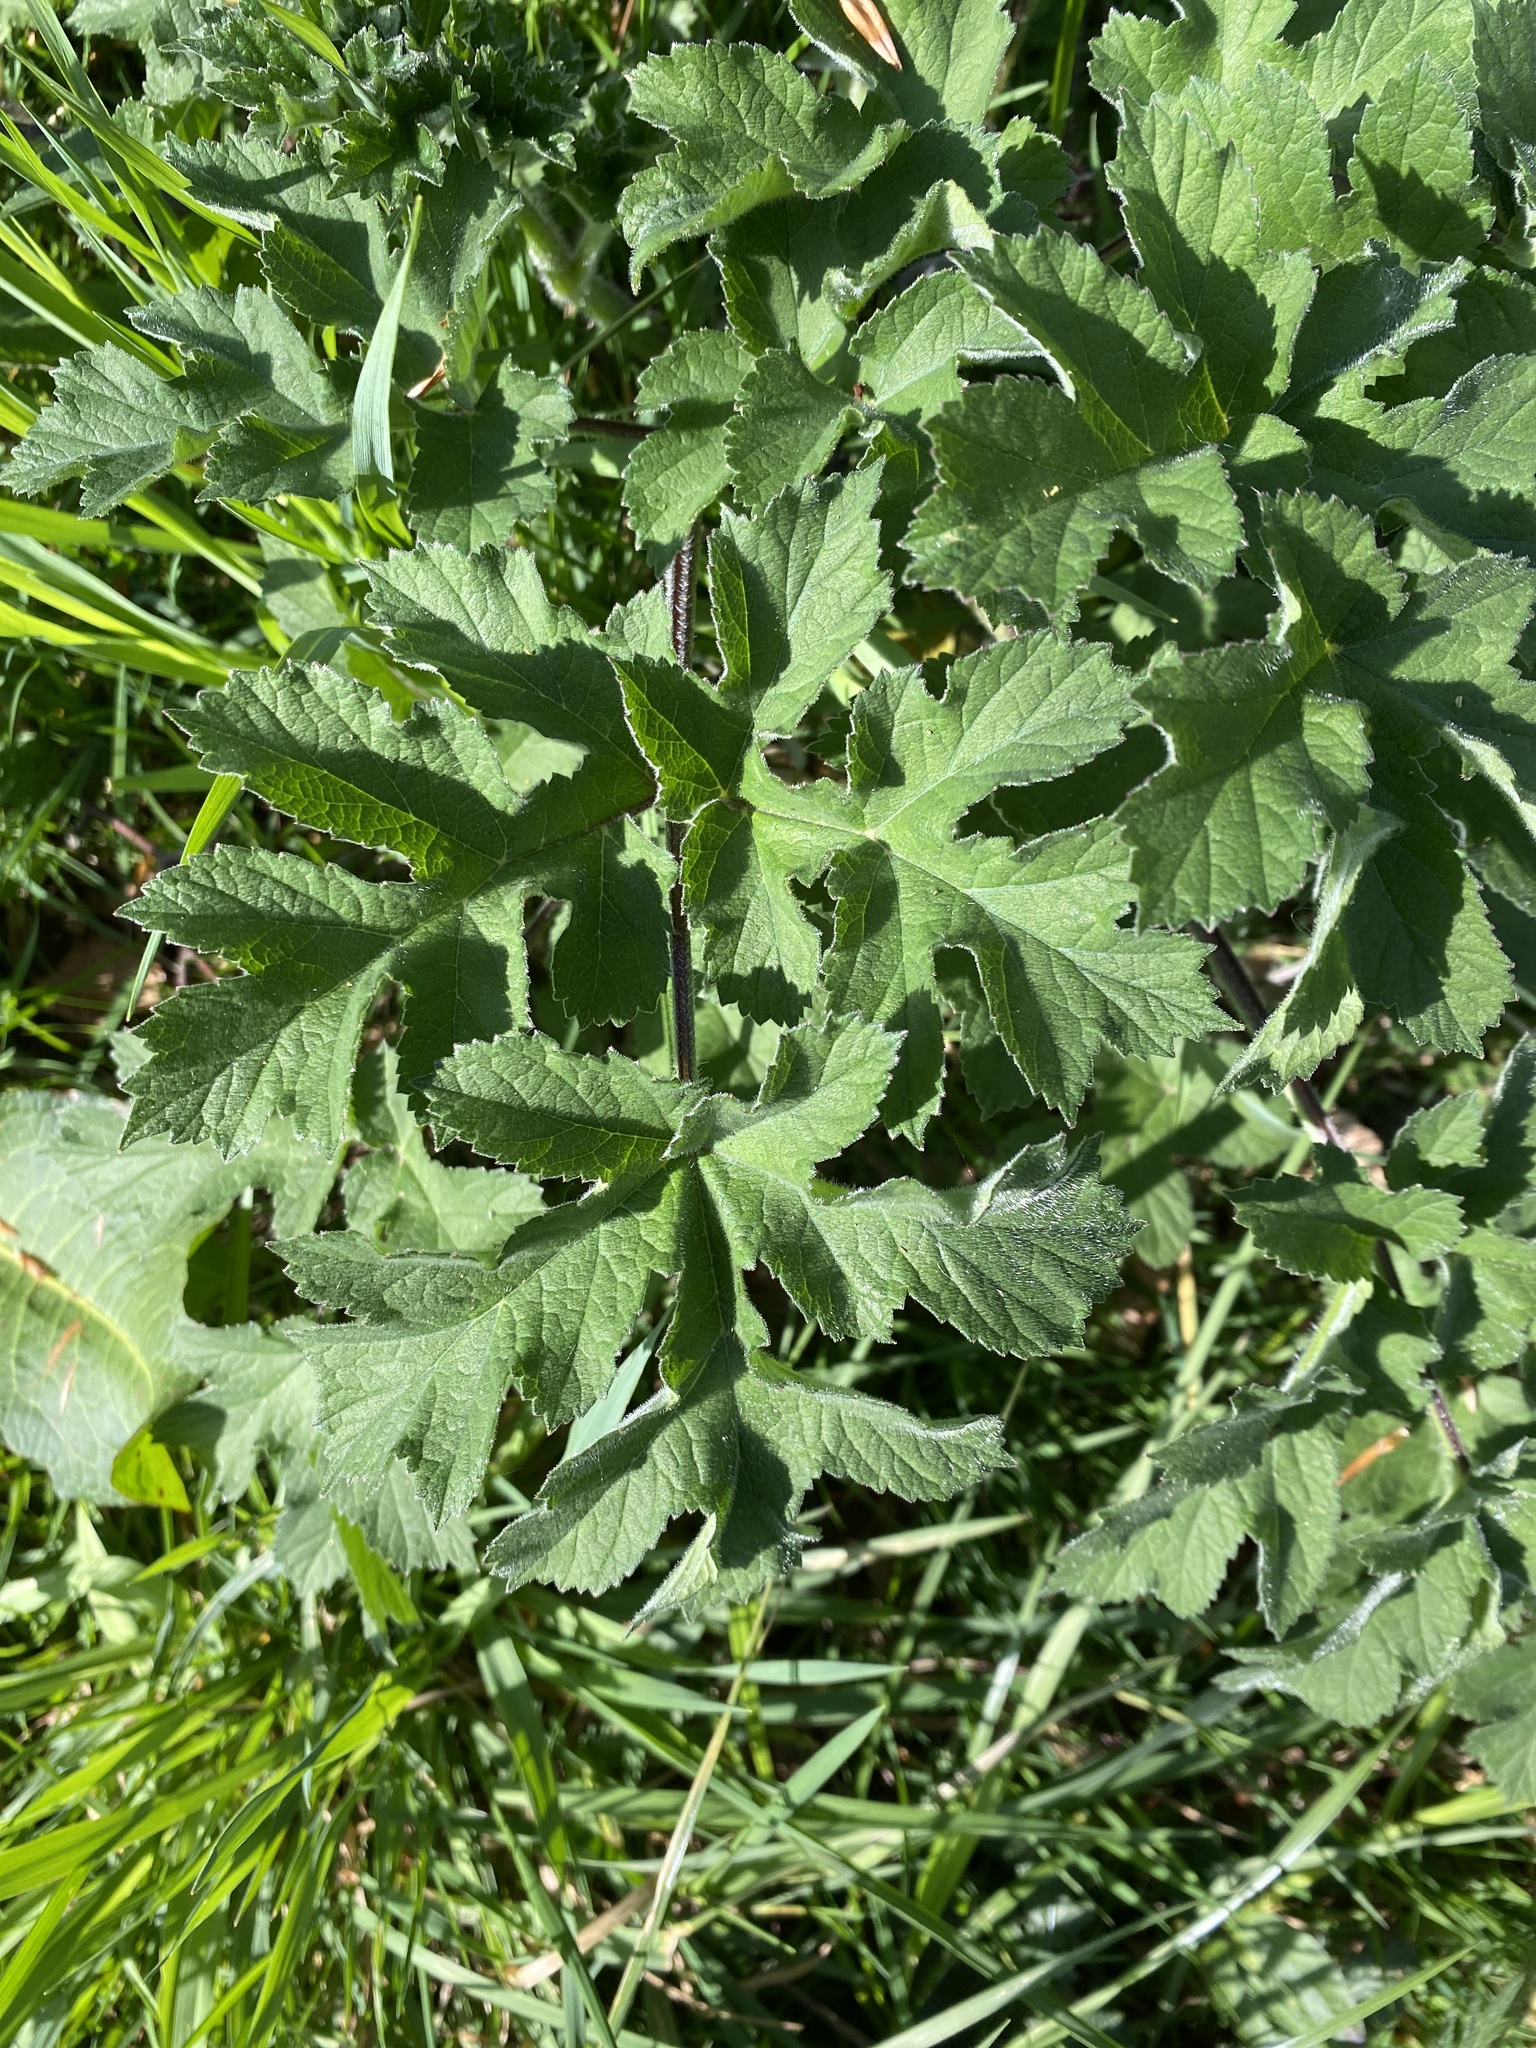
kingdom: Plantae
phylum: Tracheophyta
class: Magnoliopsida
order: Apiales
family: Apiaceae
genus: Heracleum
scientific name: Heracleum sphondylium
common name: Hogweed
